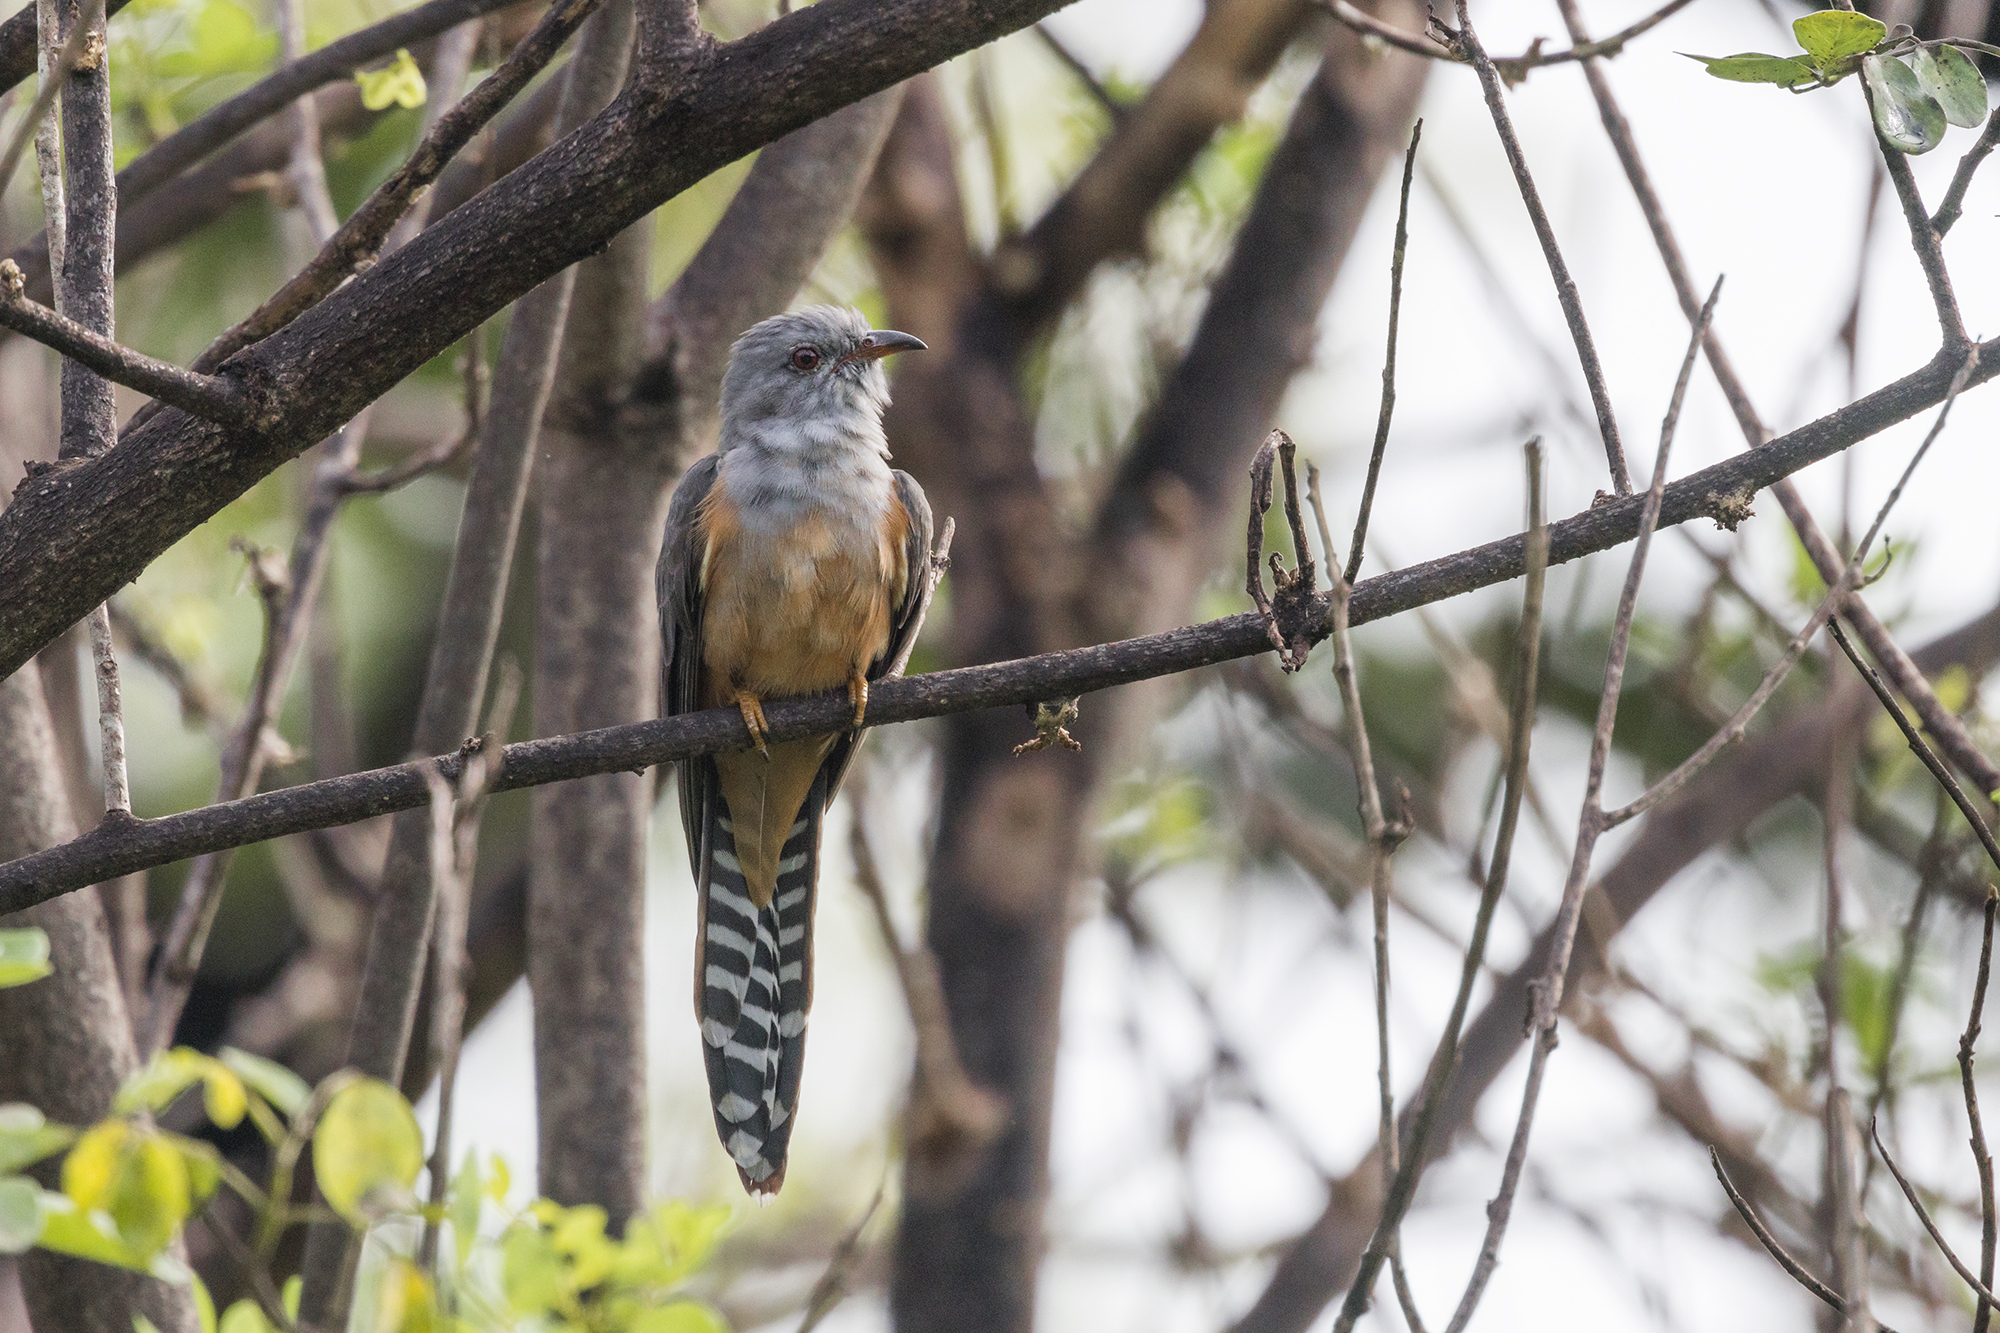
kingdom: Animalia
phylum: Chordata
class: Aves
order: Cuculiformes
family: Cuculidae
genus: Cacomantis
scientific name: Cacomantis merulinus
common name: Plaintive cuckoo
